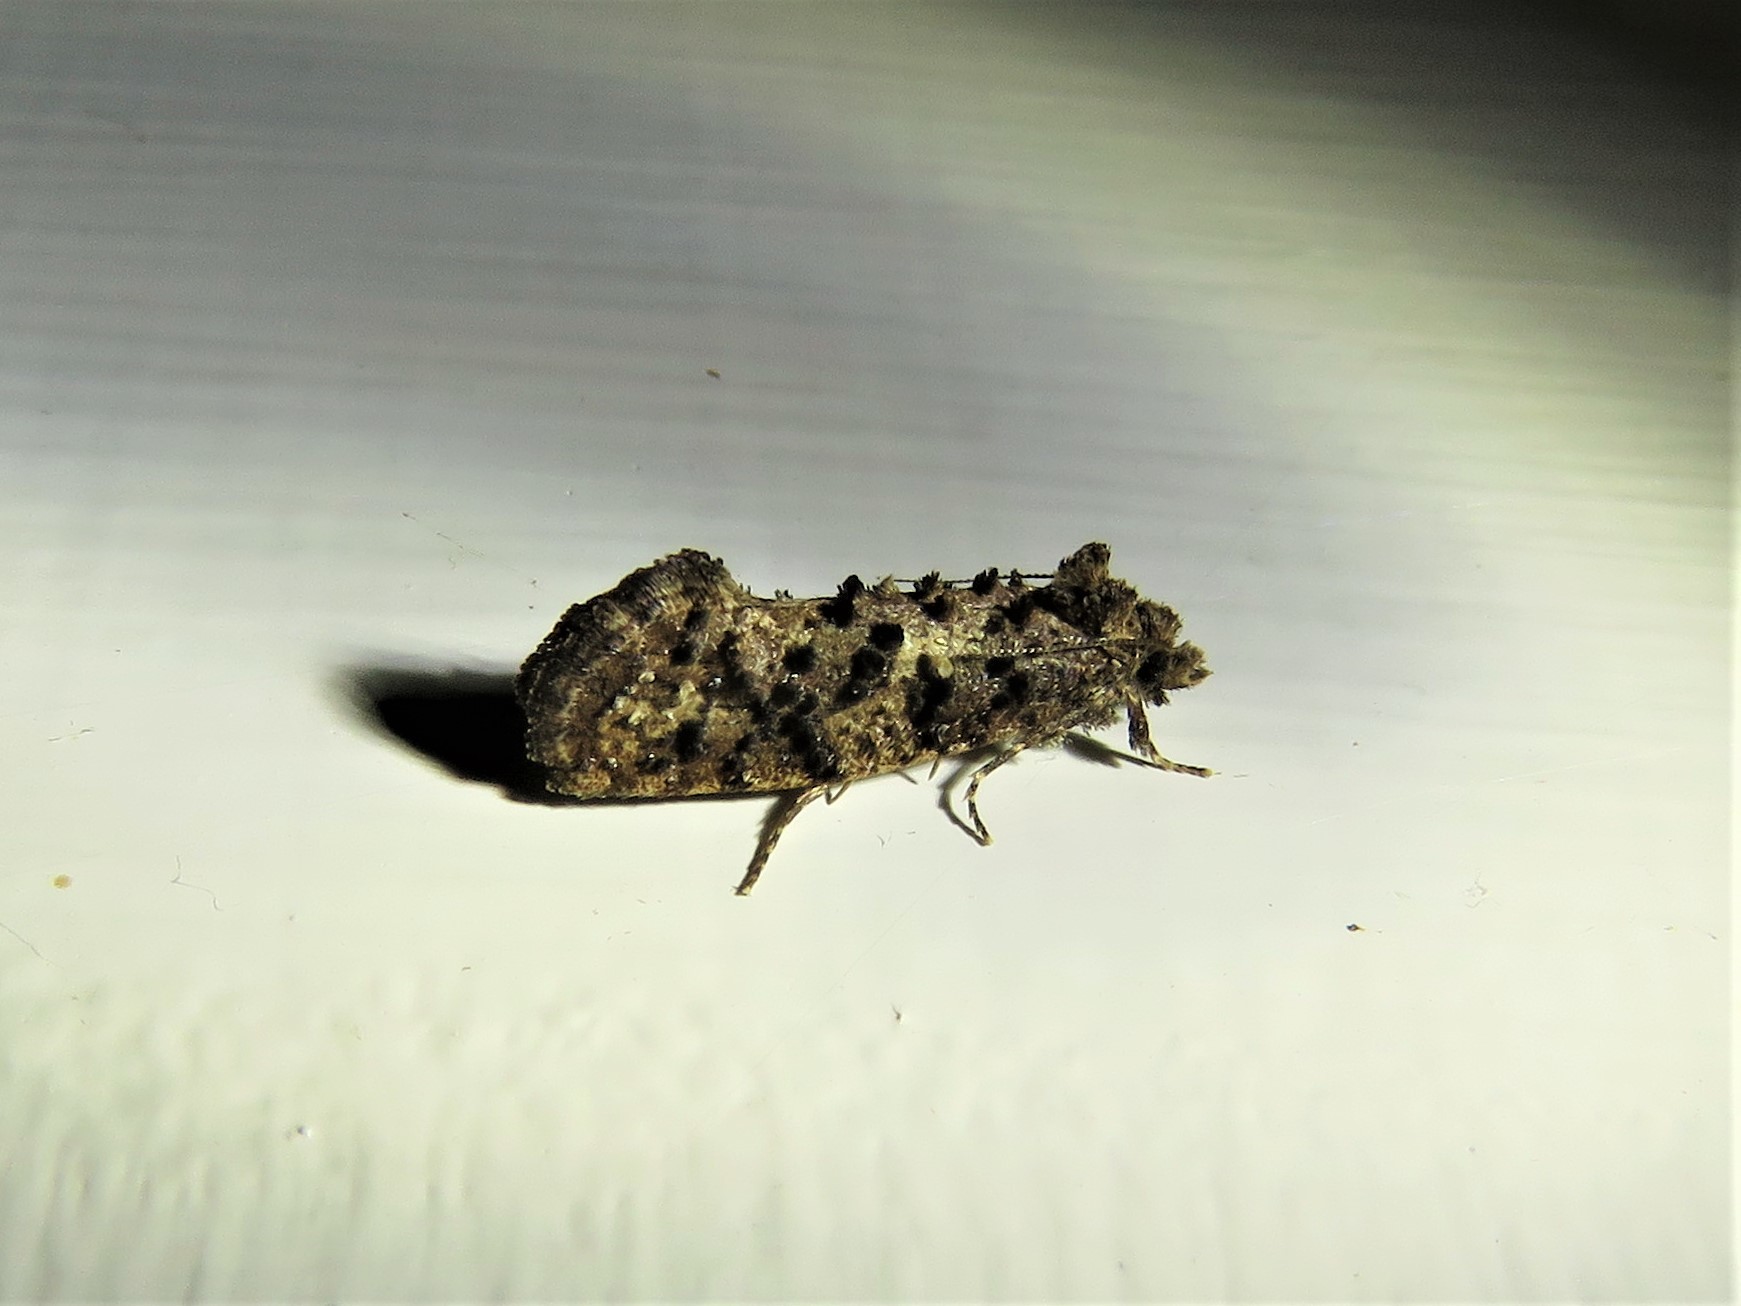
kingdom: Animalia
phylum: Arthropoda
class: Insecta
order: Lepidoptera
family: Tineidae
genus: Acrolophus
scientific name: Acrolophus cressoni
